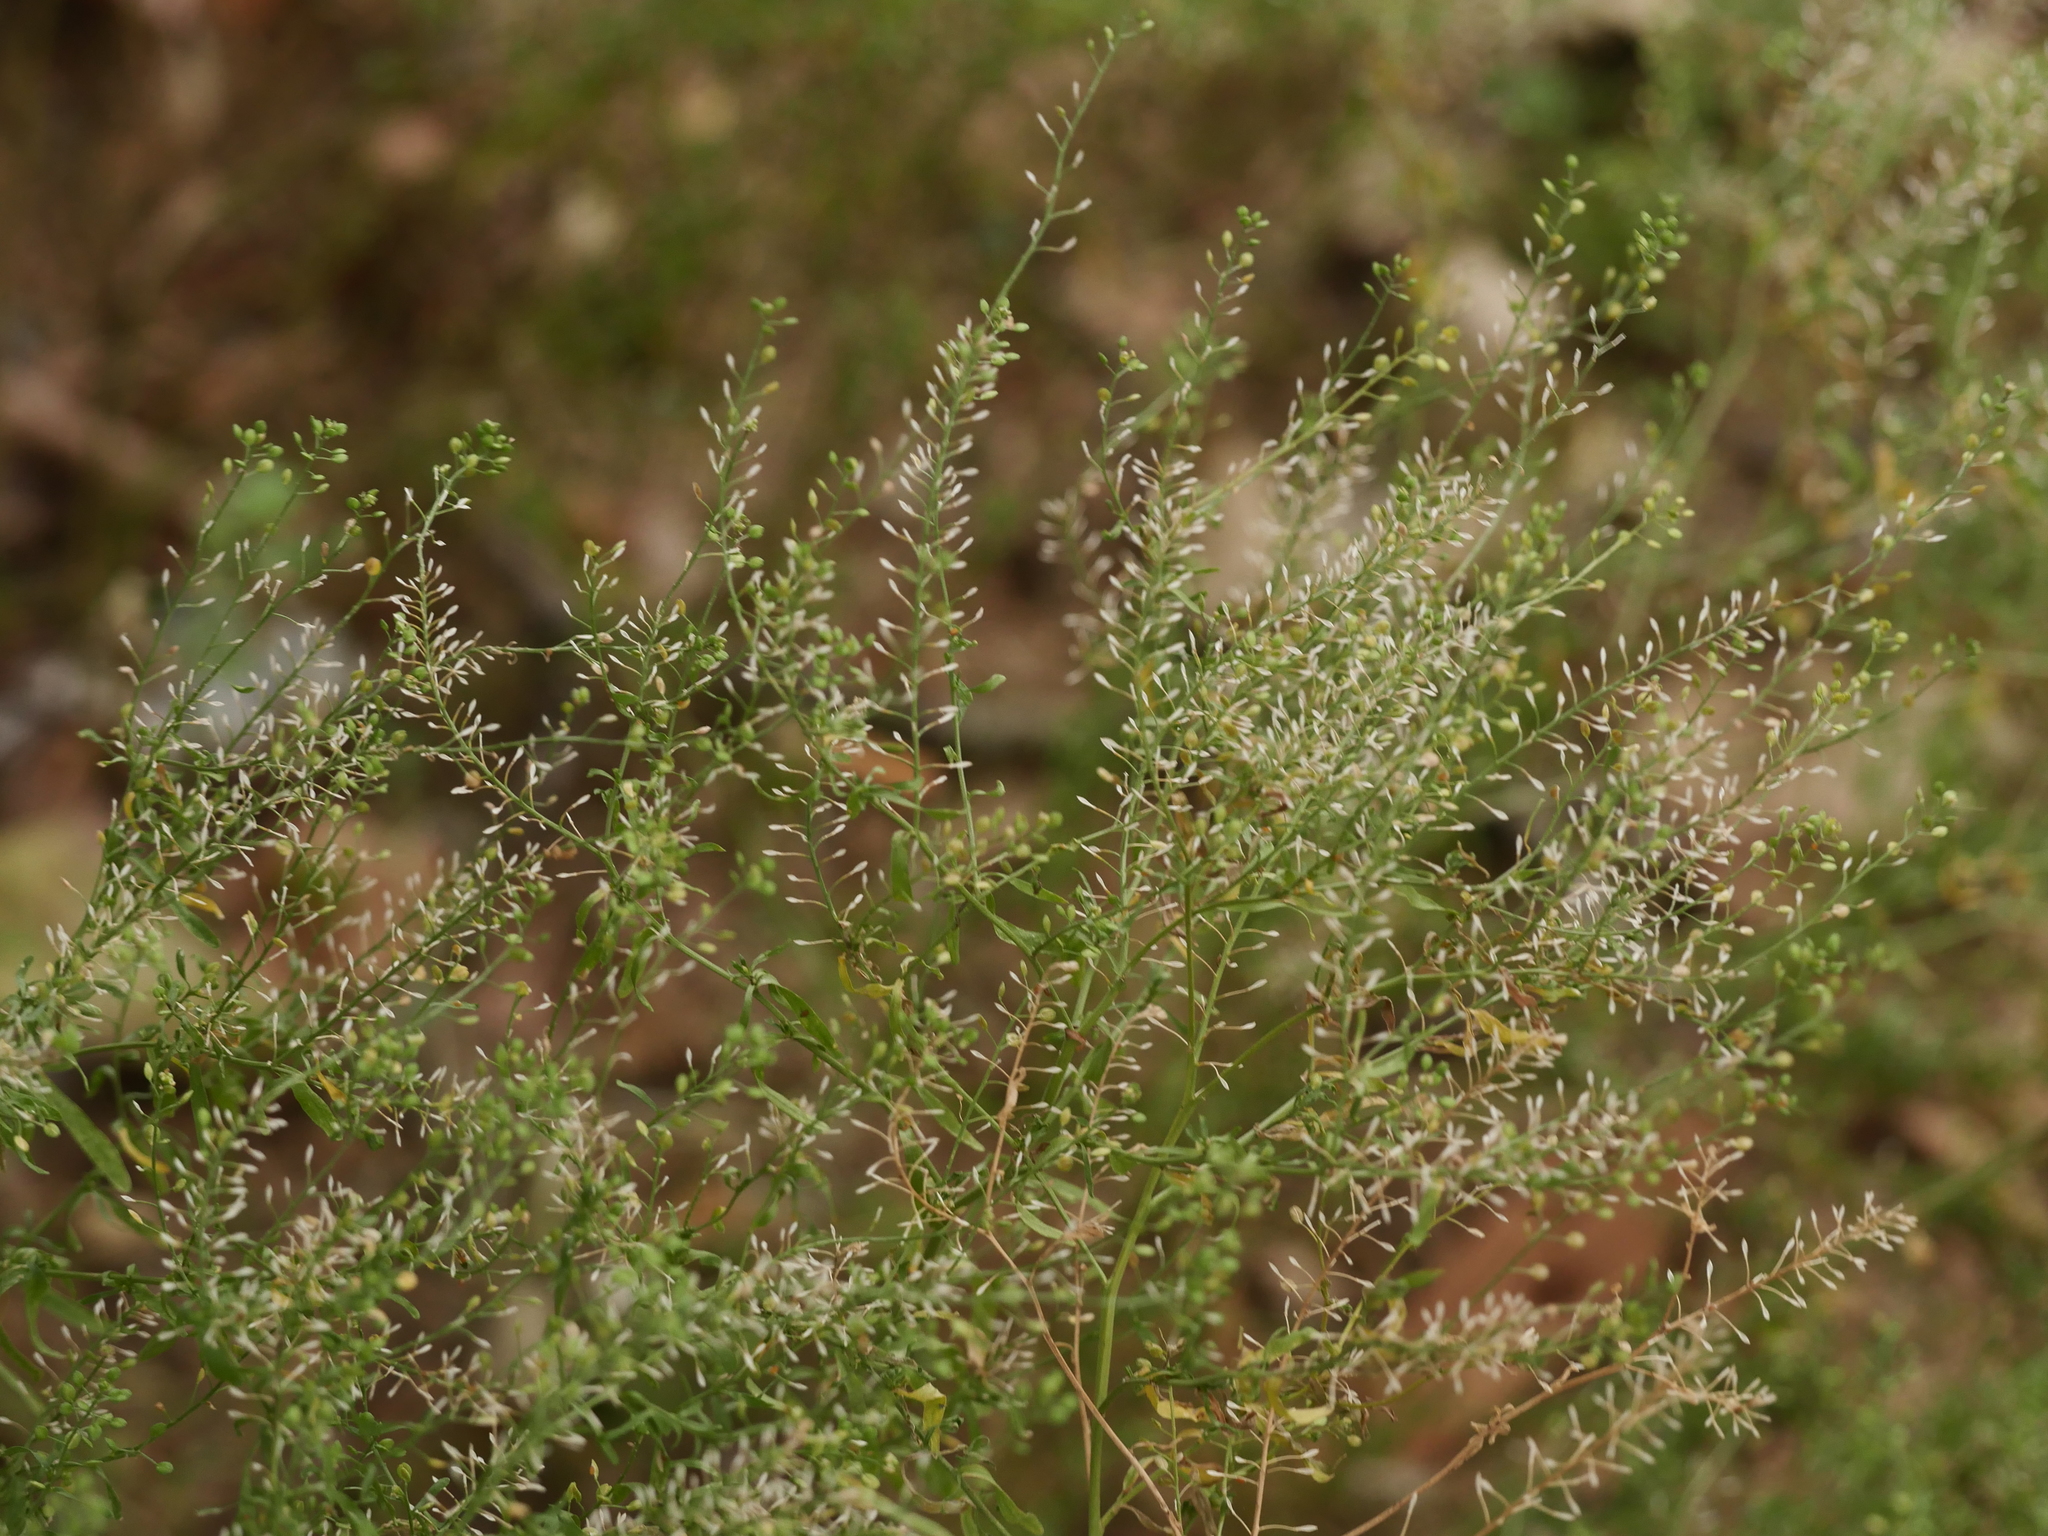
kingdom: Plantae
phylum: Tracheophyta
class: Magnoliopsida
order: Brassicales
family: Brassicaceae
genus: Lepidium
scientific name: Lepidium ruderale
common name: Narrow-leaved pepperwort
